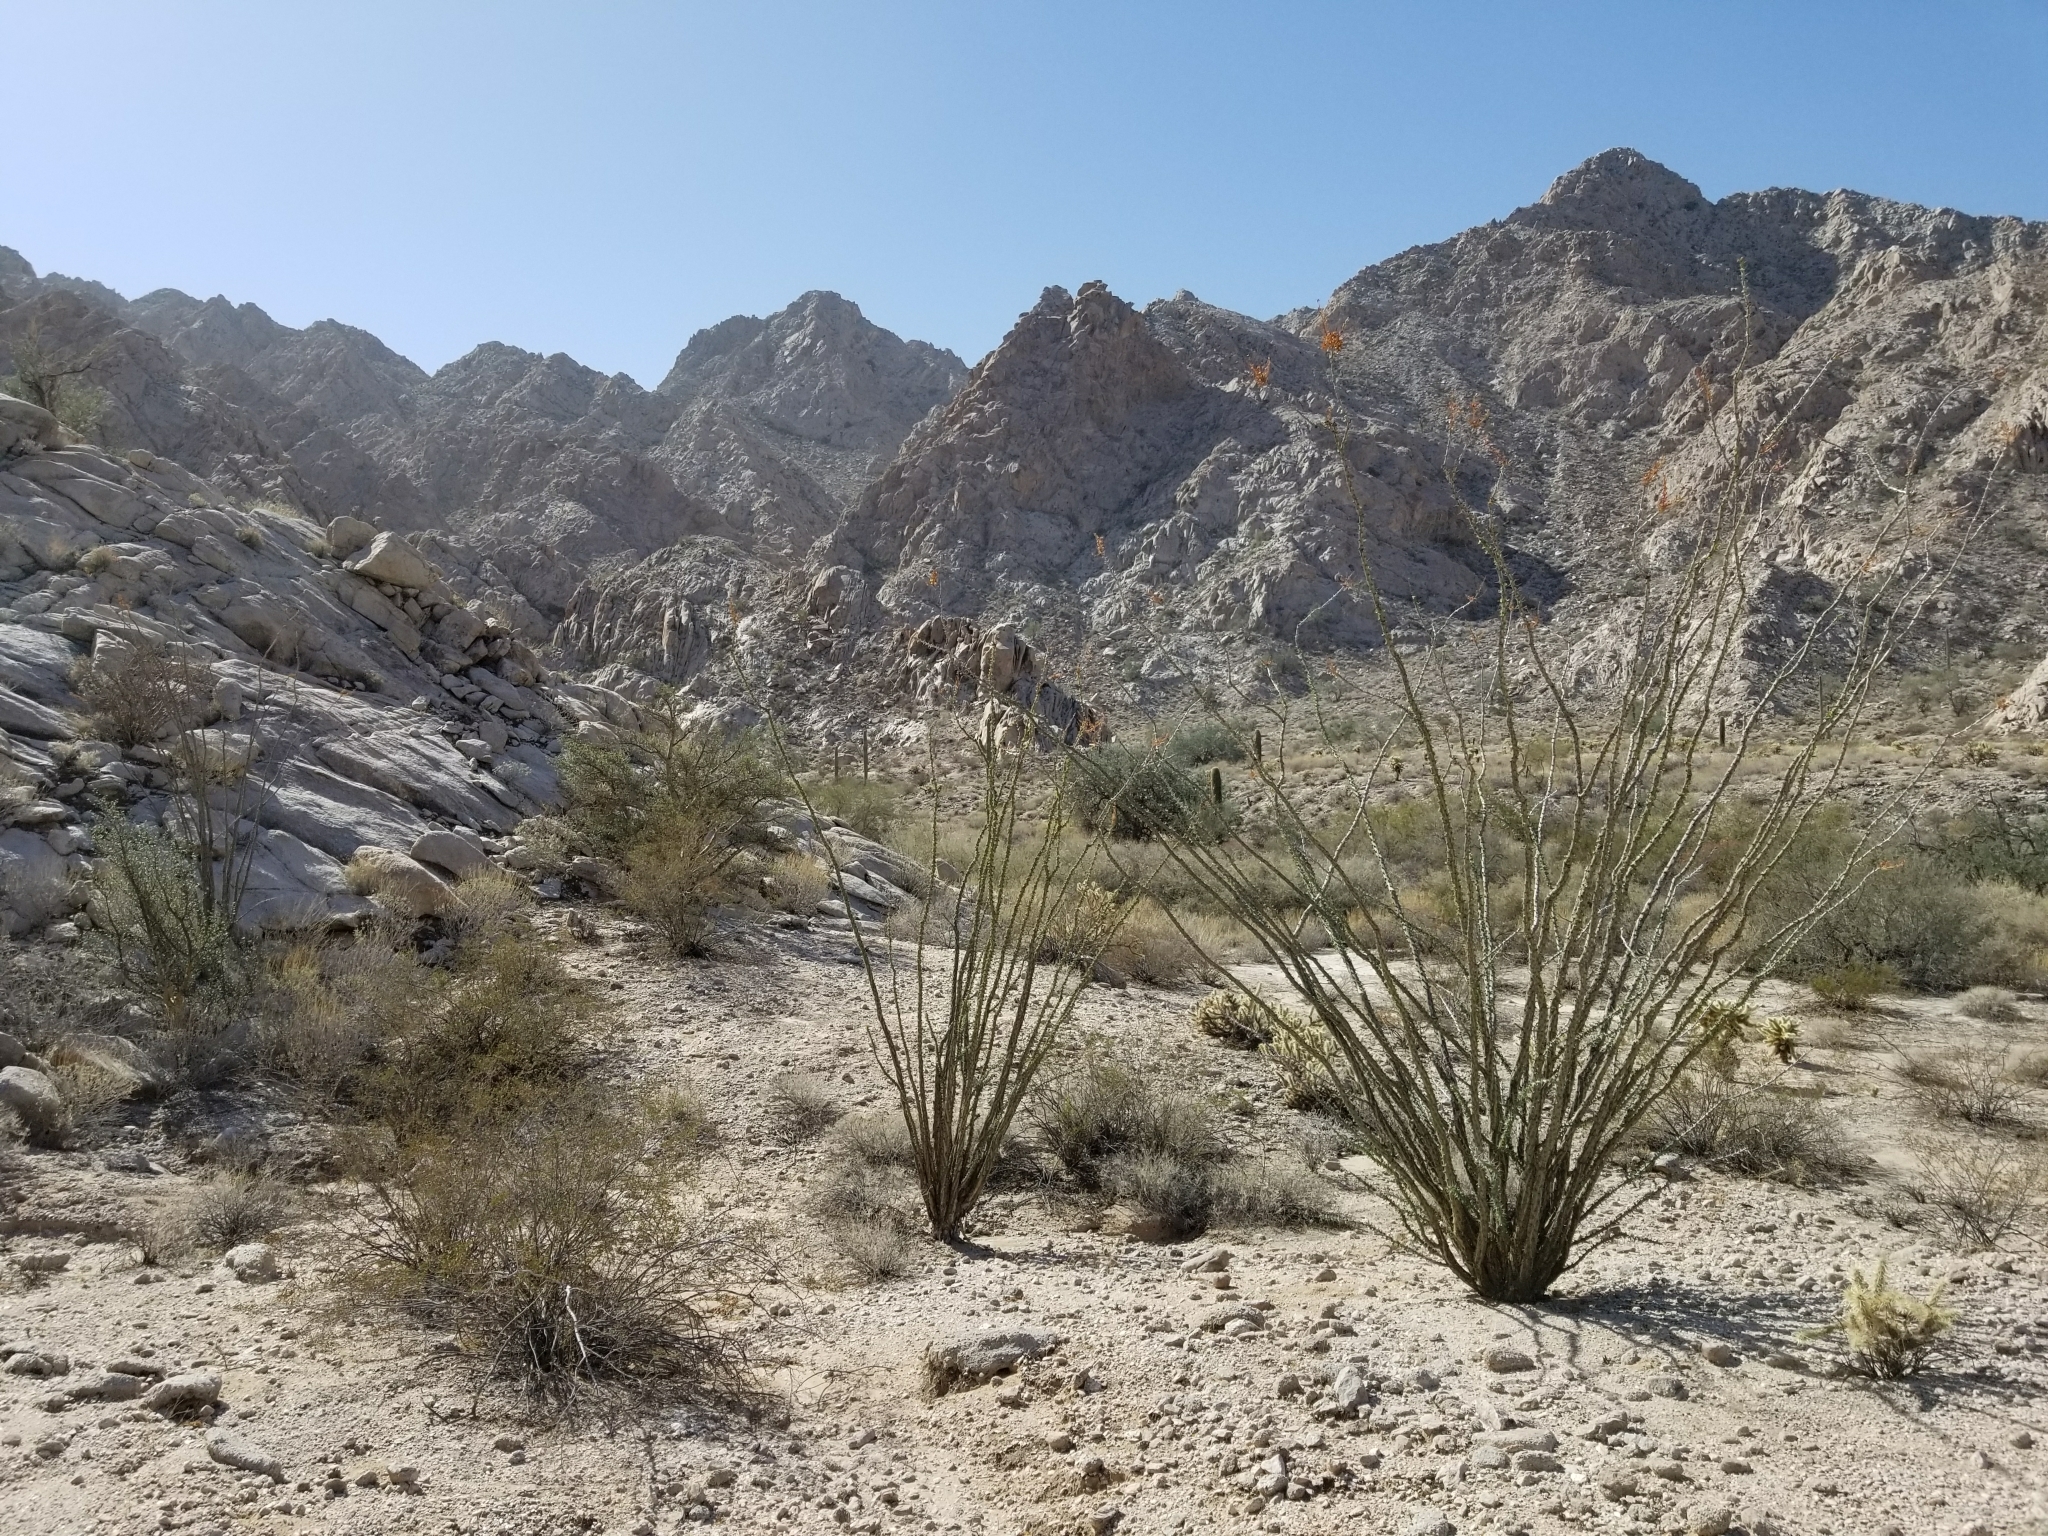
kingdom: Plantae
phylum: Tracheophyta
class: Magnoliopsida
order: Ericales
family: Fouquieriaceae
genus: Fouquieria
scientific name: Fouquieria splendens
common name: Vine-cactus
